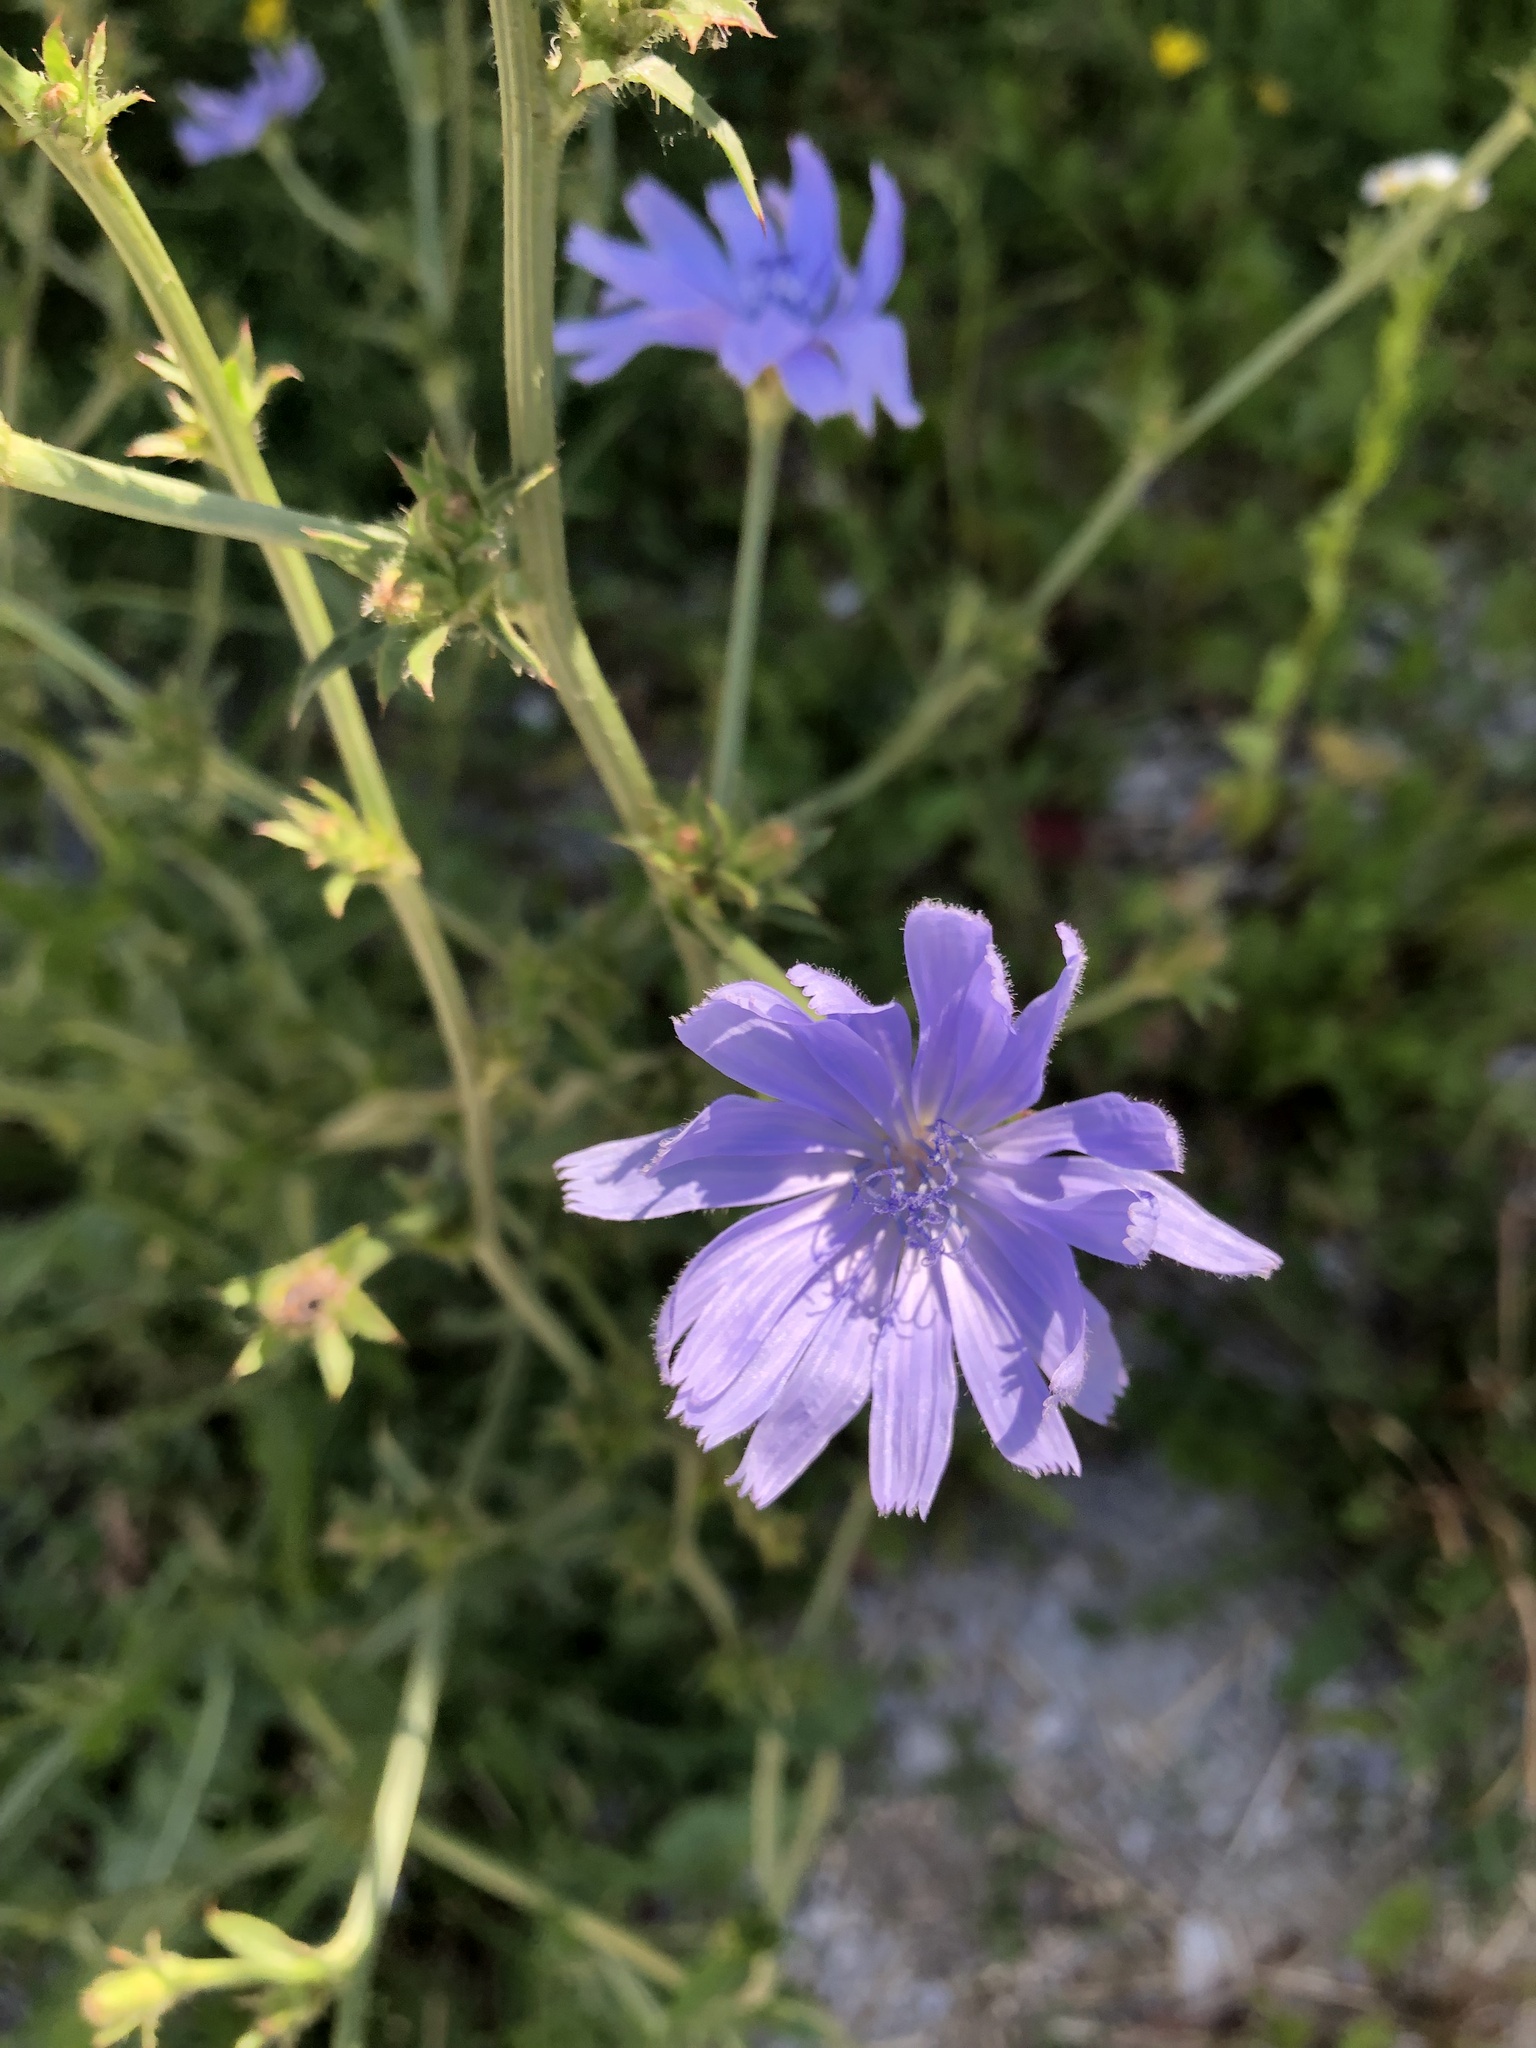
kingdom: Plantae
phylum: Tracheophyta
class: Magnoliopsida
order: Asterales
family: Asteraceae
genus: Cichorium
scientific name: Cichorium intybus
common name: Chicory
